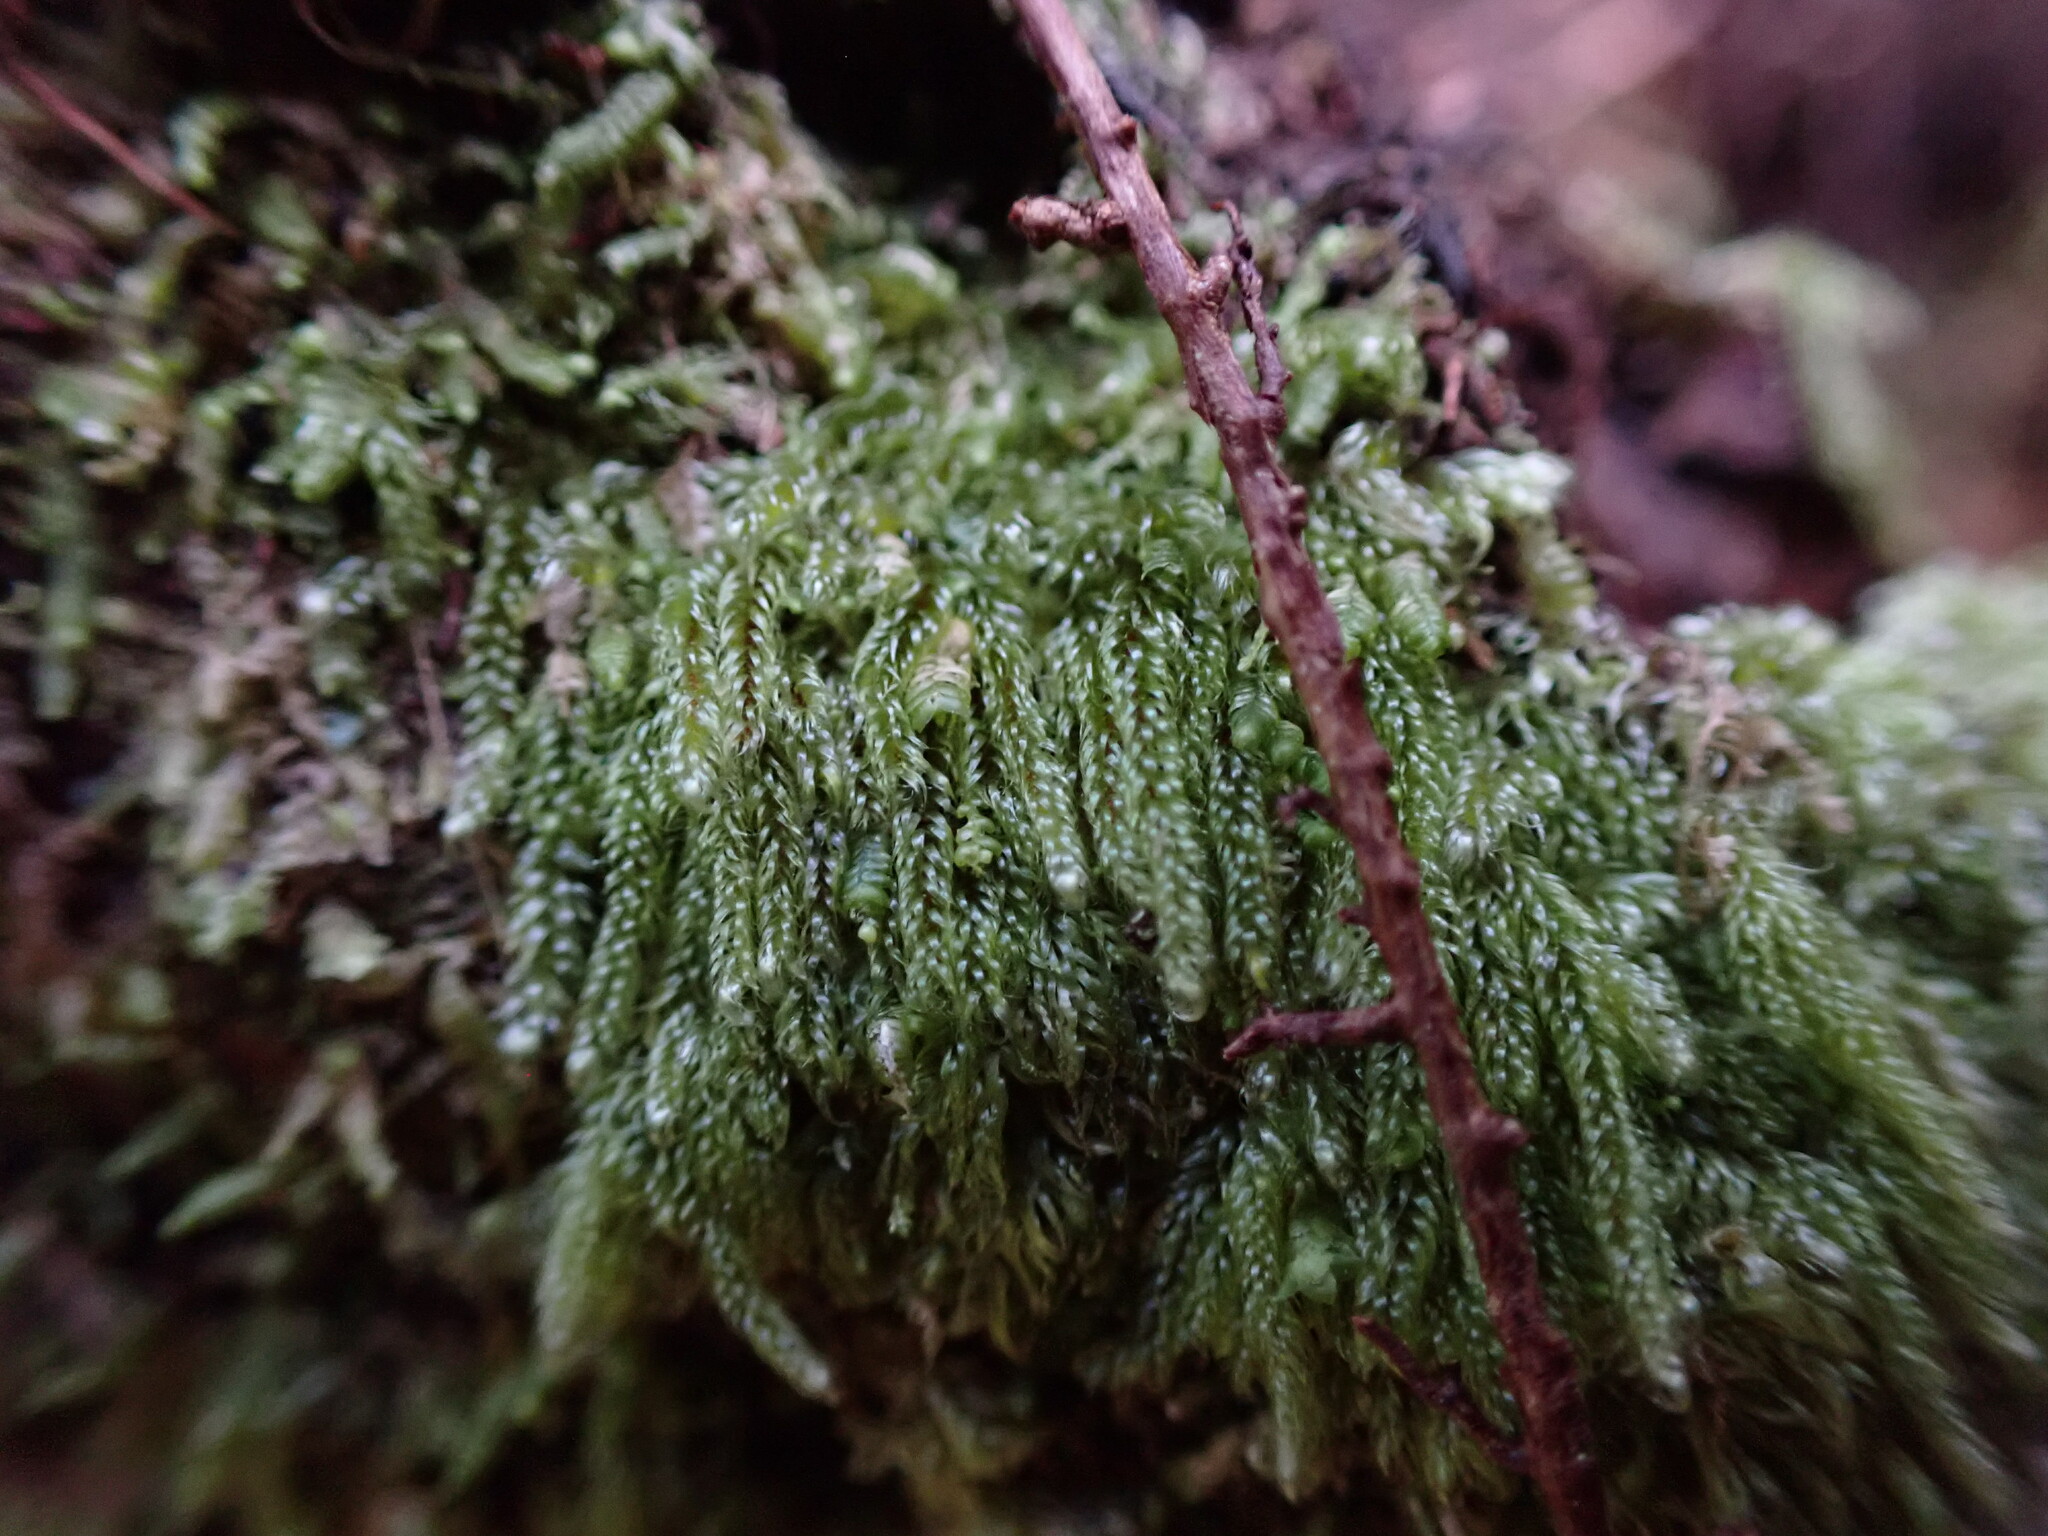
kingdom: Plantae
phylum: Bryophyta
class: Bryopsida
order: Hypnales
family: Pylaisiadelphaceae
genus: Trochophyllohypnum
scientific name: Trochophyllohypnum circinale
